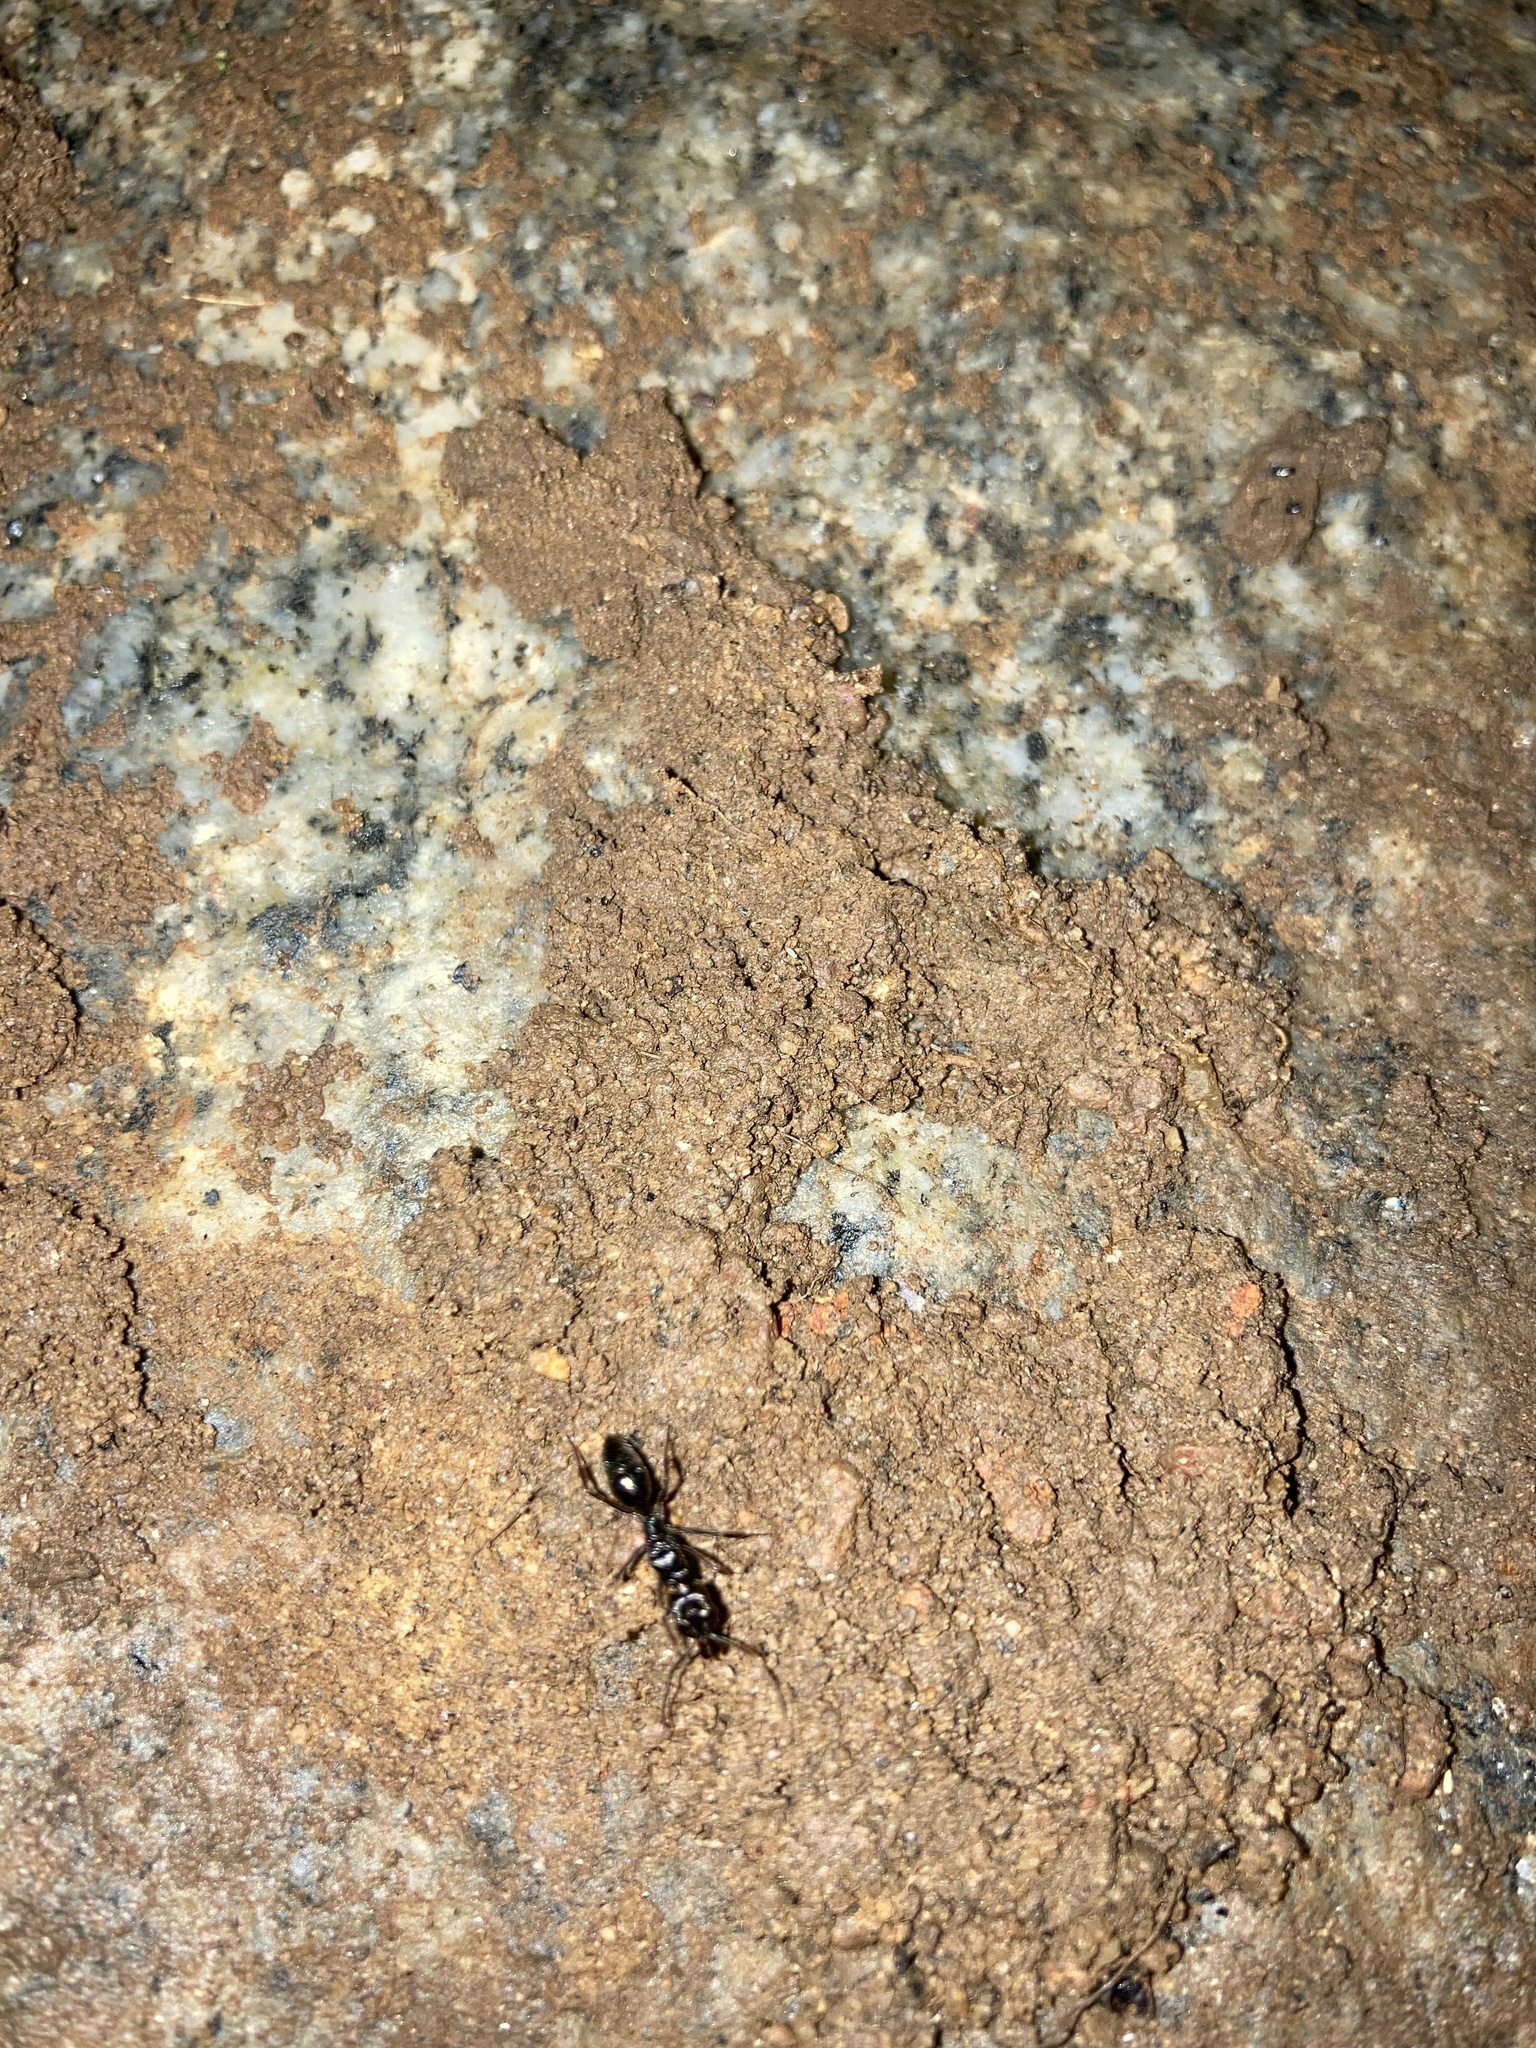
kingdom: Animalia
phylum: Arthropoda
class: Insecta
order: Hymenoptera
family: Formicidae
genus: Odontomachus
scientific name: Odontomachus simillimus
